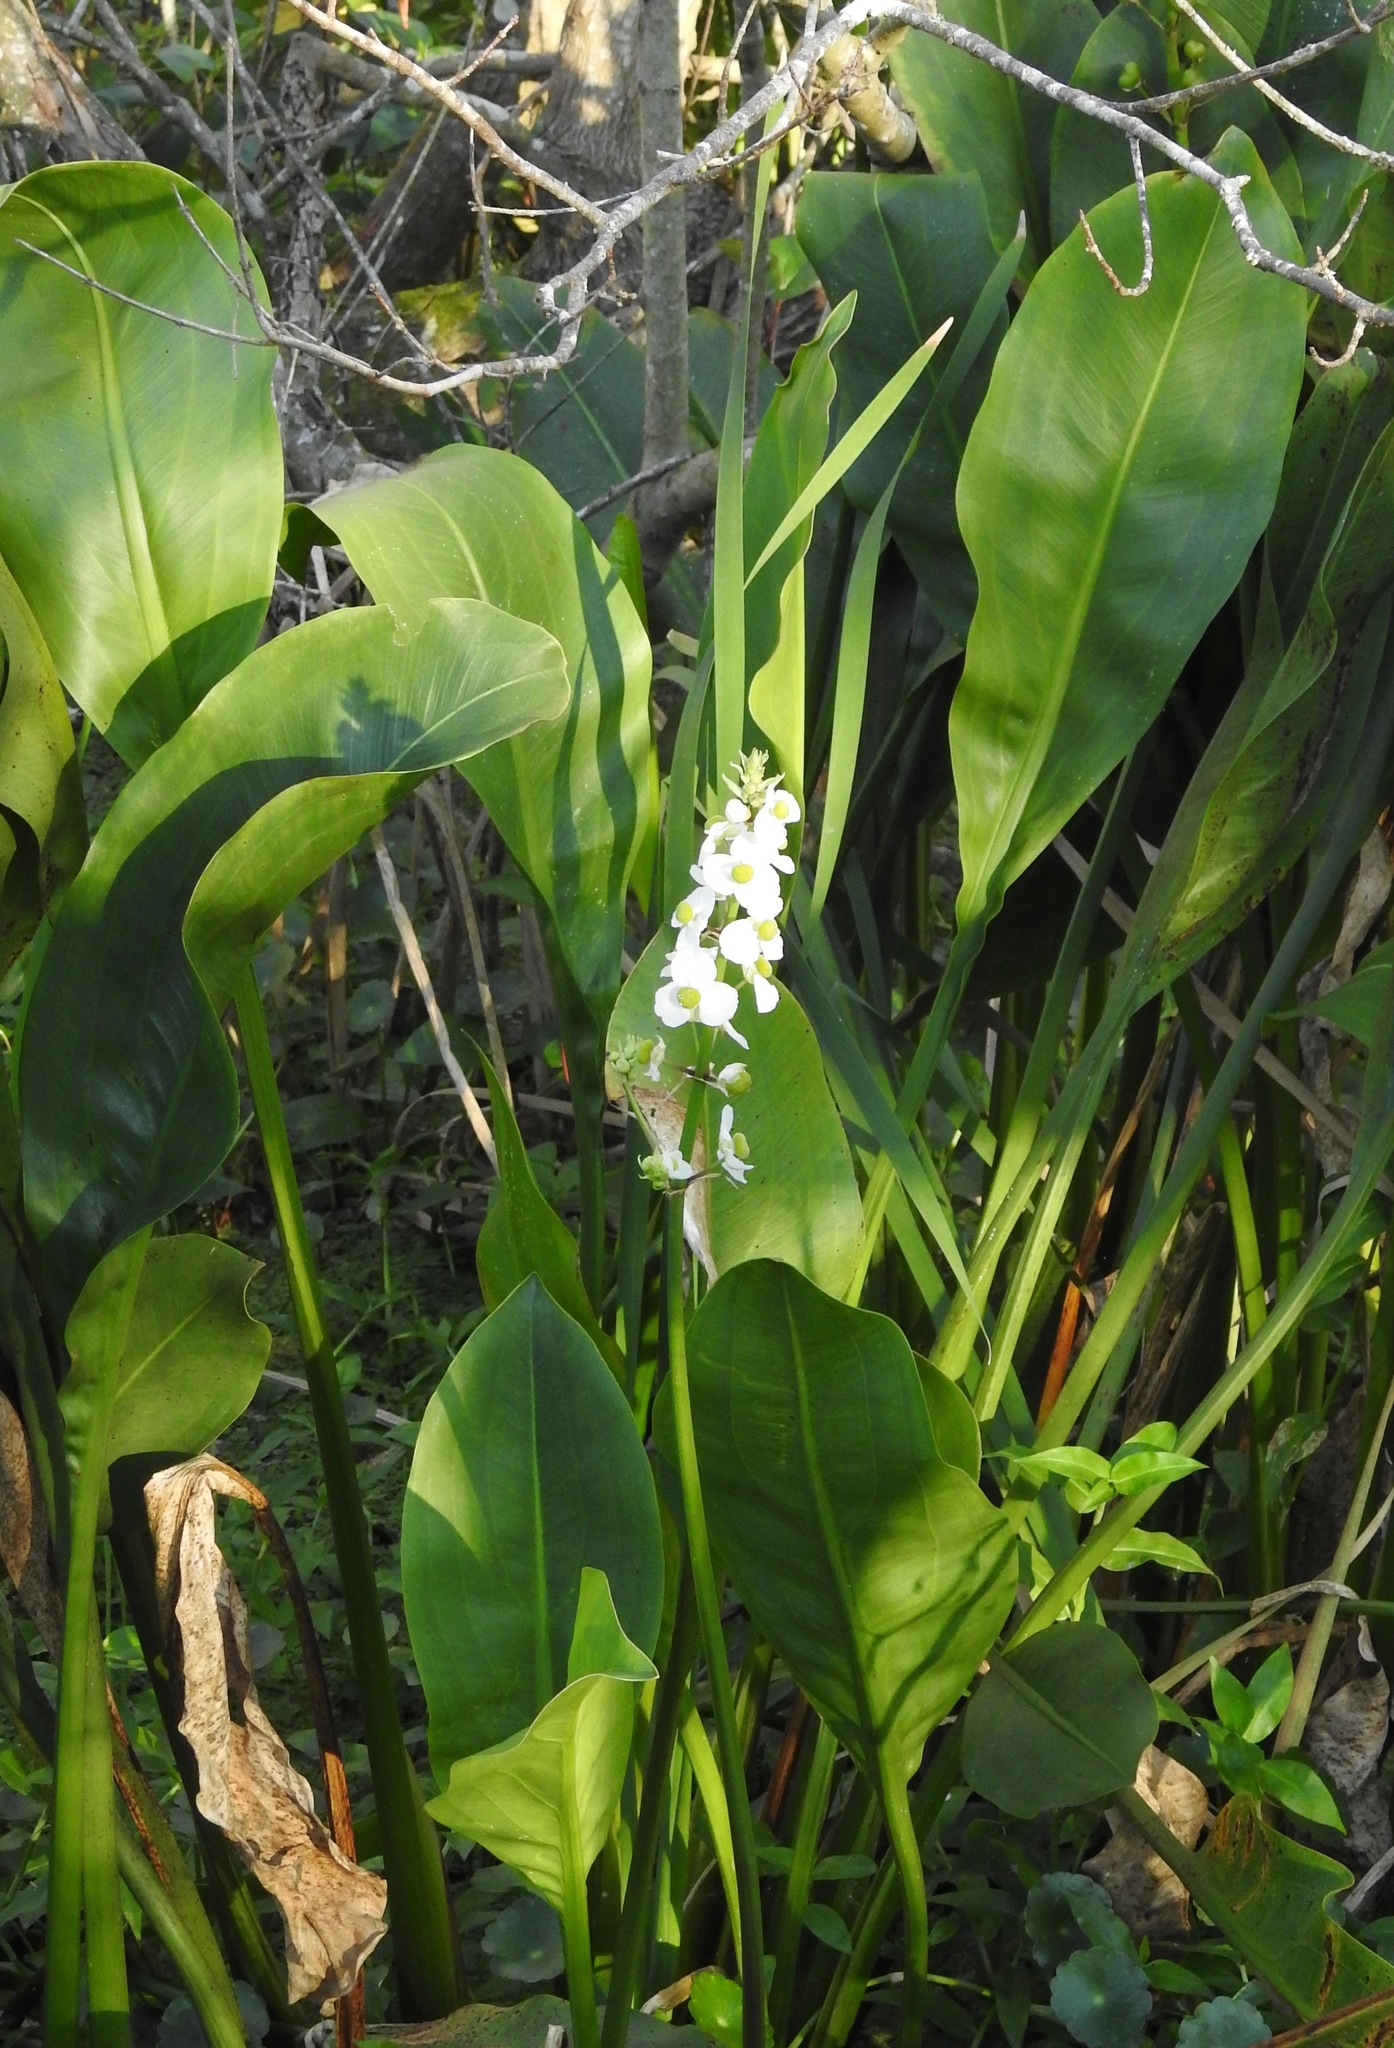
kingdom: Plantae
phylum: Tracheophyta
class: Liliopsida
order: Alismatales
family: Alismataceae
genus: Sagittaria
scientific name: Sagittaria lancifolia
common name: Lance-leaf arrowhead
